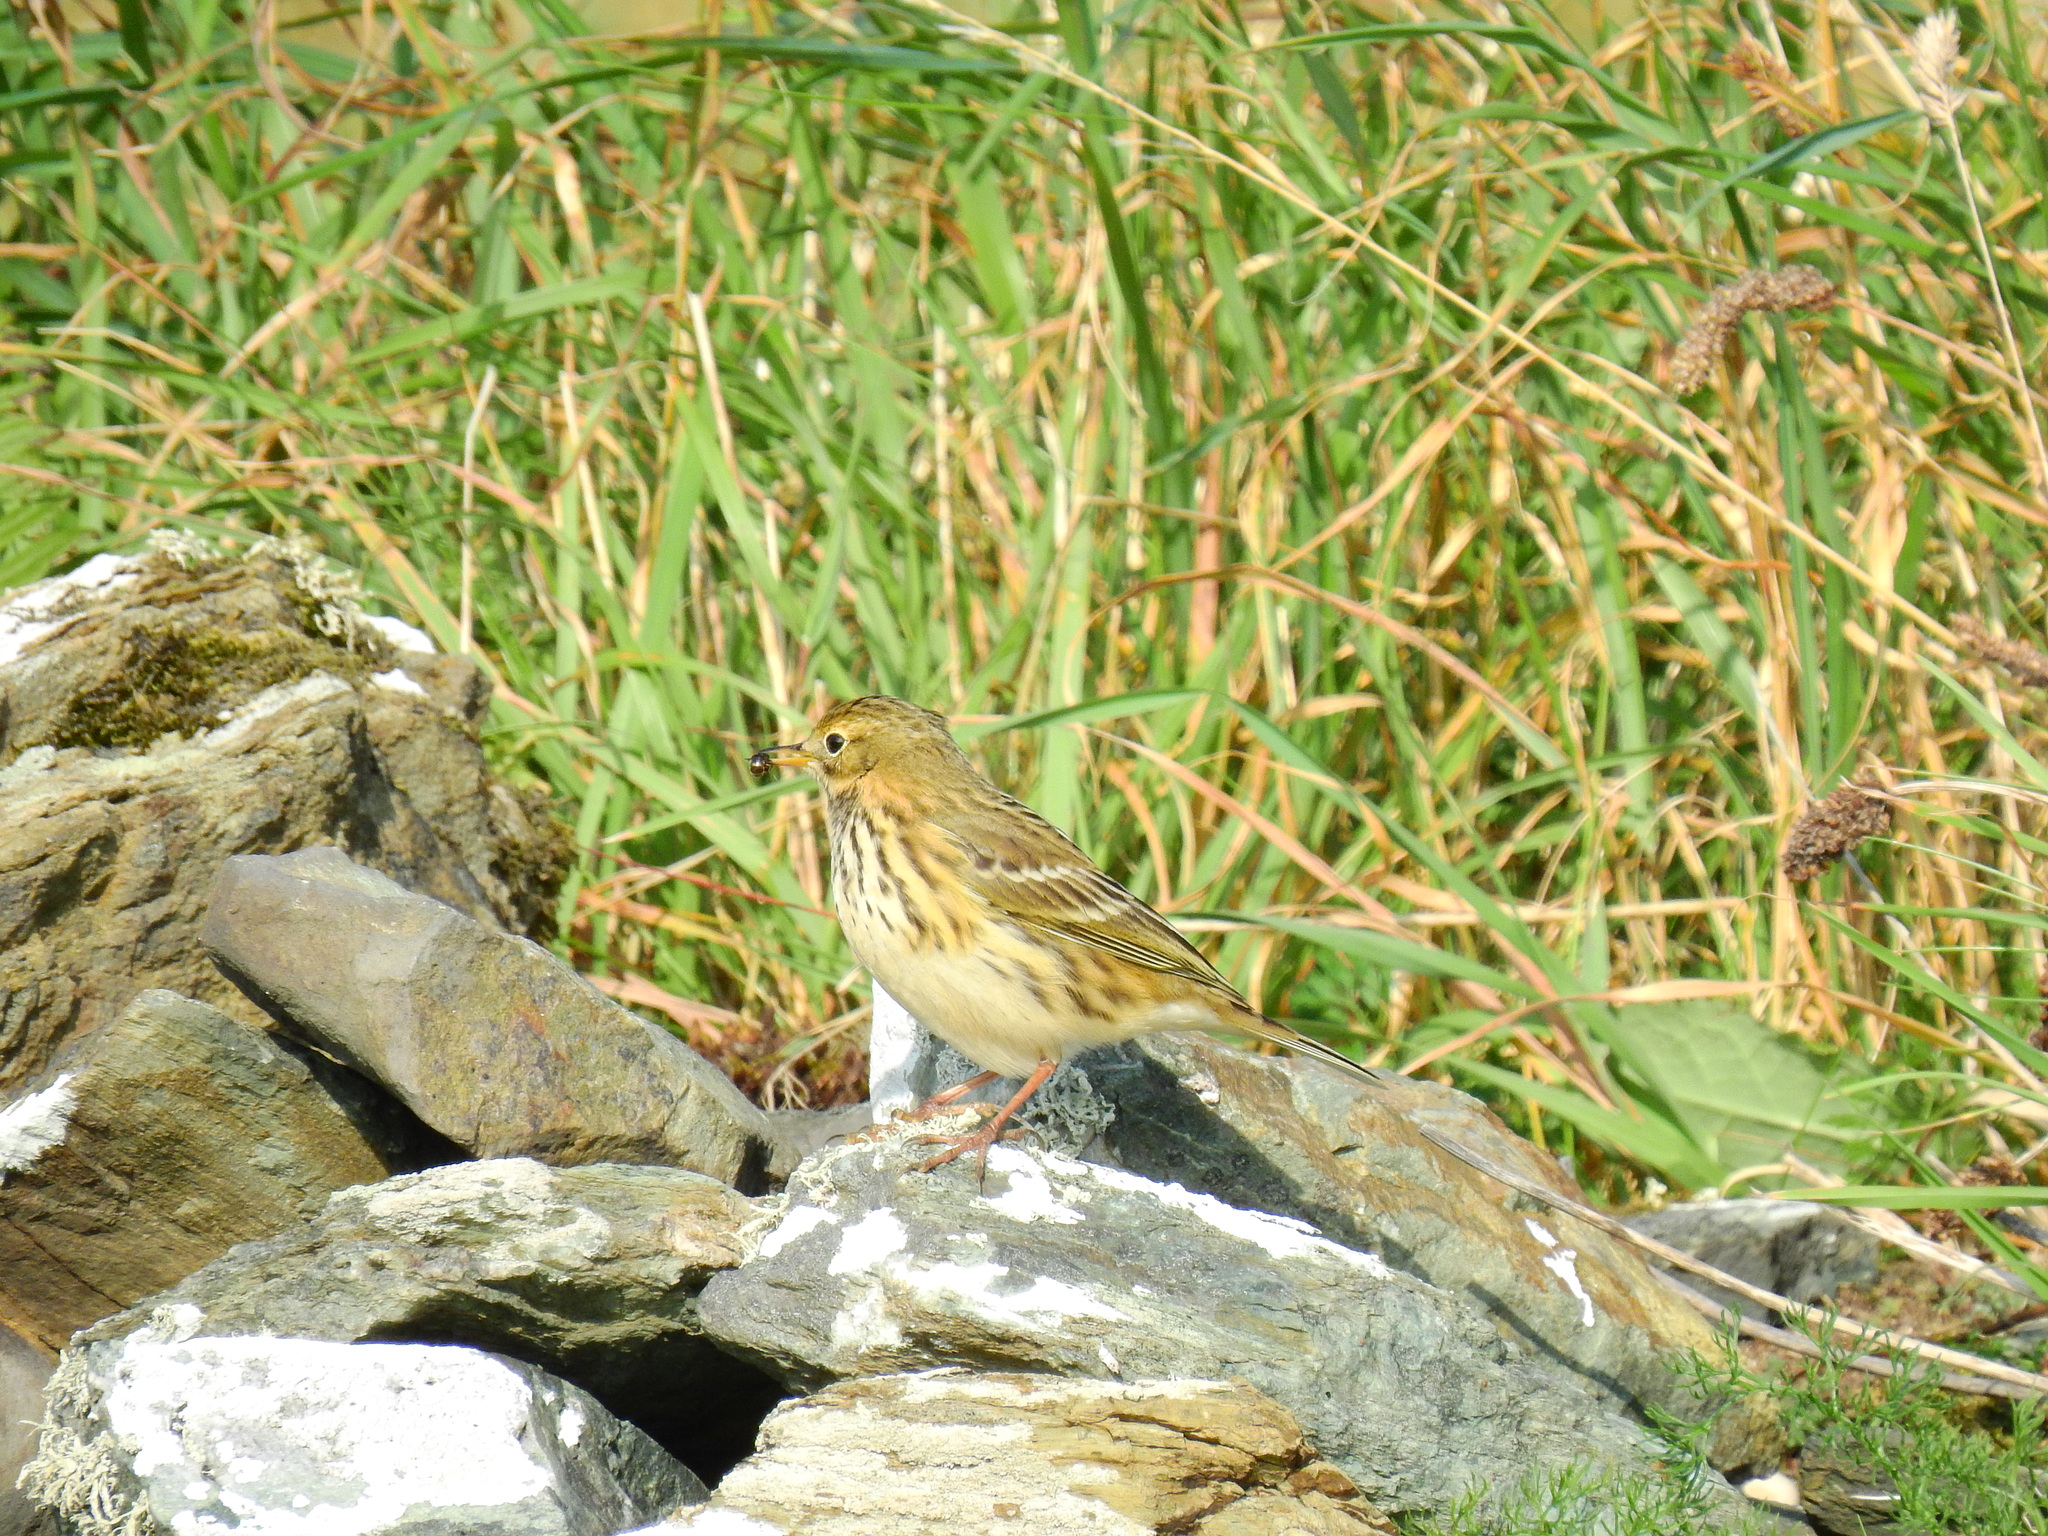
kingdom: Animalia
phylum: Chordata
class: Aves
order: Passeriformes
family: Motacillidae
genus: Anthus
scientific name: Anthus pratensis
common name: Meadow pipit
